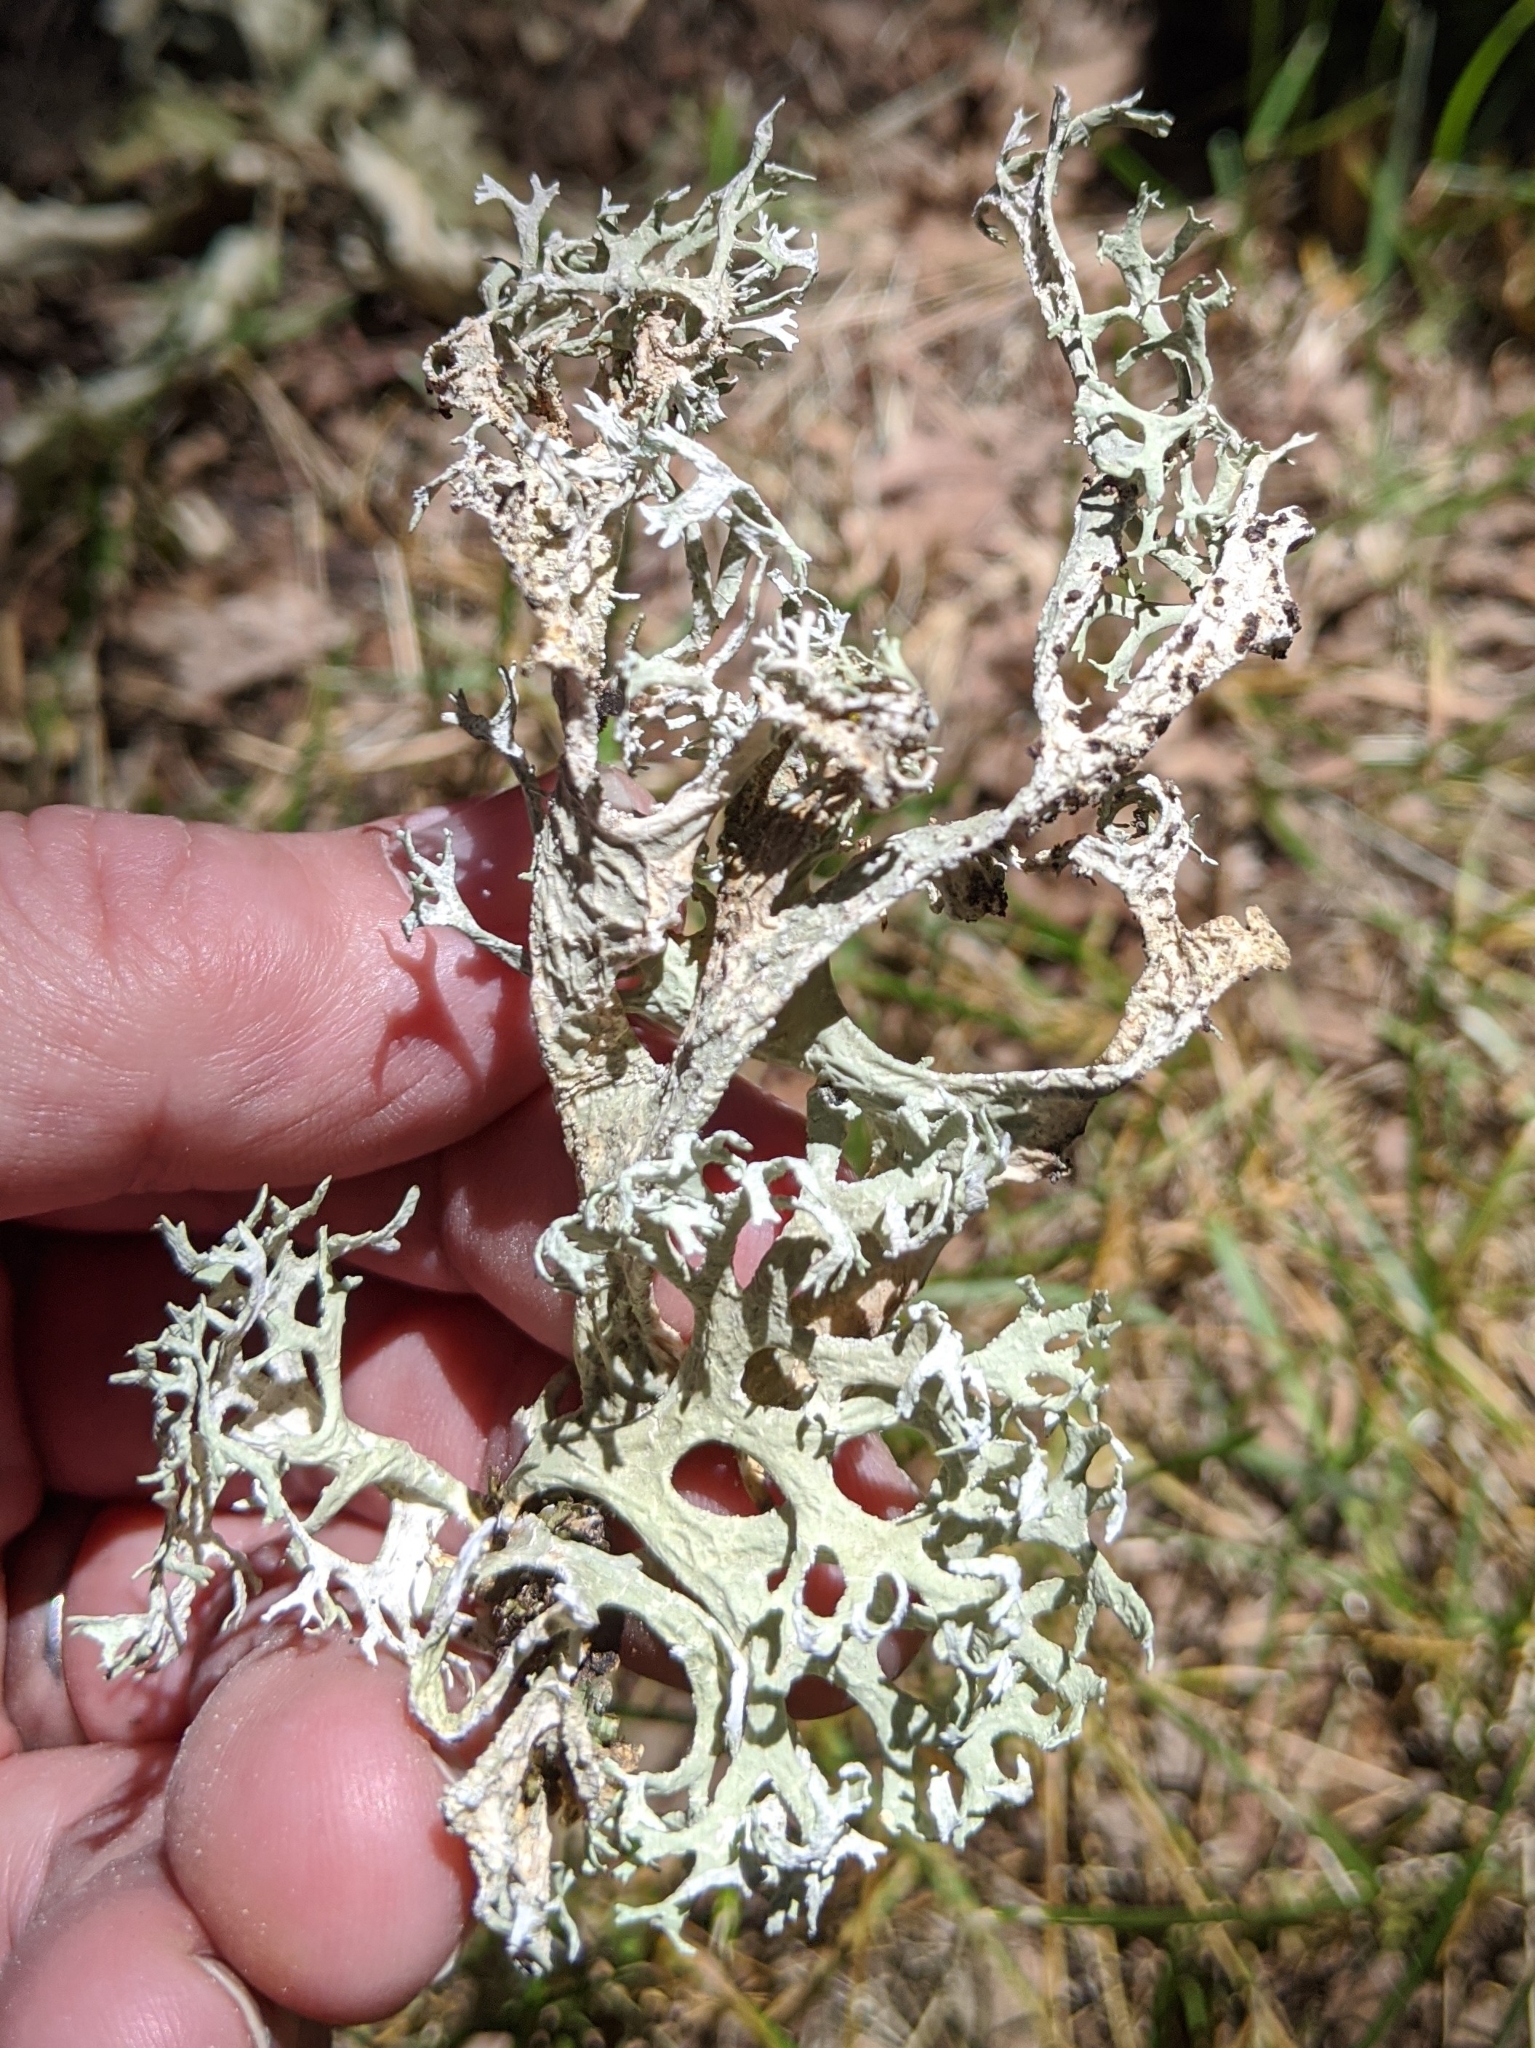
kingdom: Fungi
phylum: Ascomycota
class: Lecanoromycetes
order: Lecanorales
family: Parmeliaceae
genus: Evernia
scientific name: Evernia prunastri
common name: Oak moss
